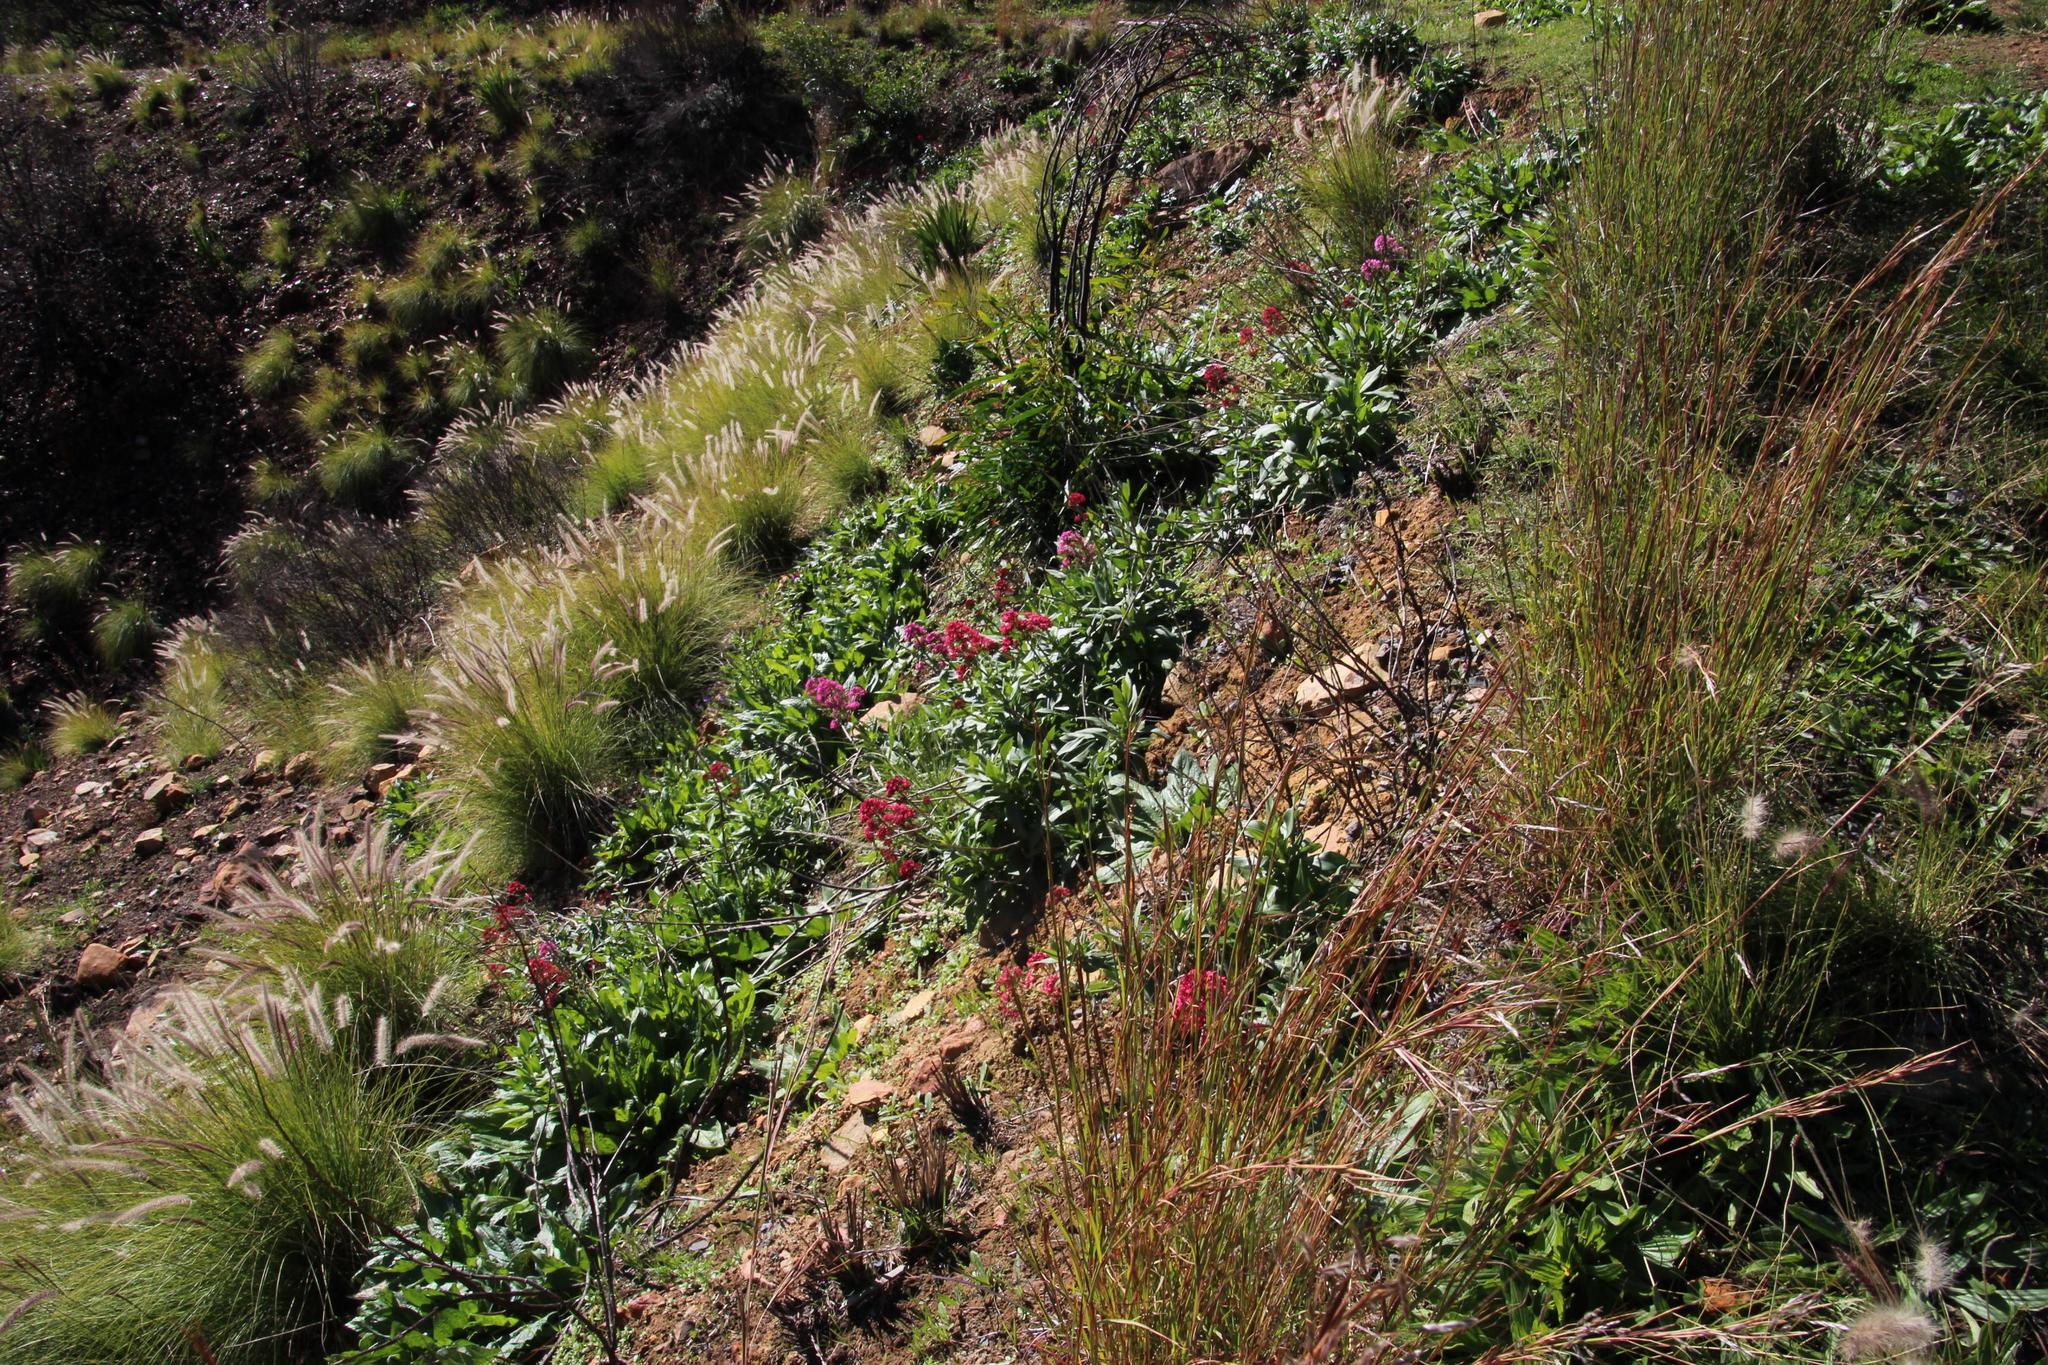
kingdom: Plantae
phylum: Tracheophyta
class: Magnoliopsida
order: Dipsacales
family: Caprifoliaceae
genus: Centranthus
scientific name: Centranthus ruber
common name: Red valerian
